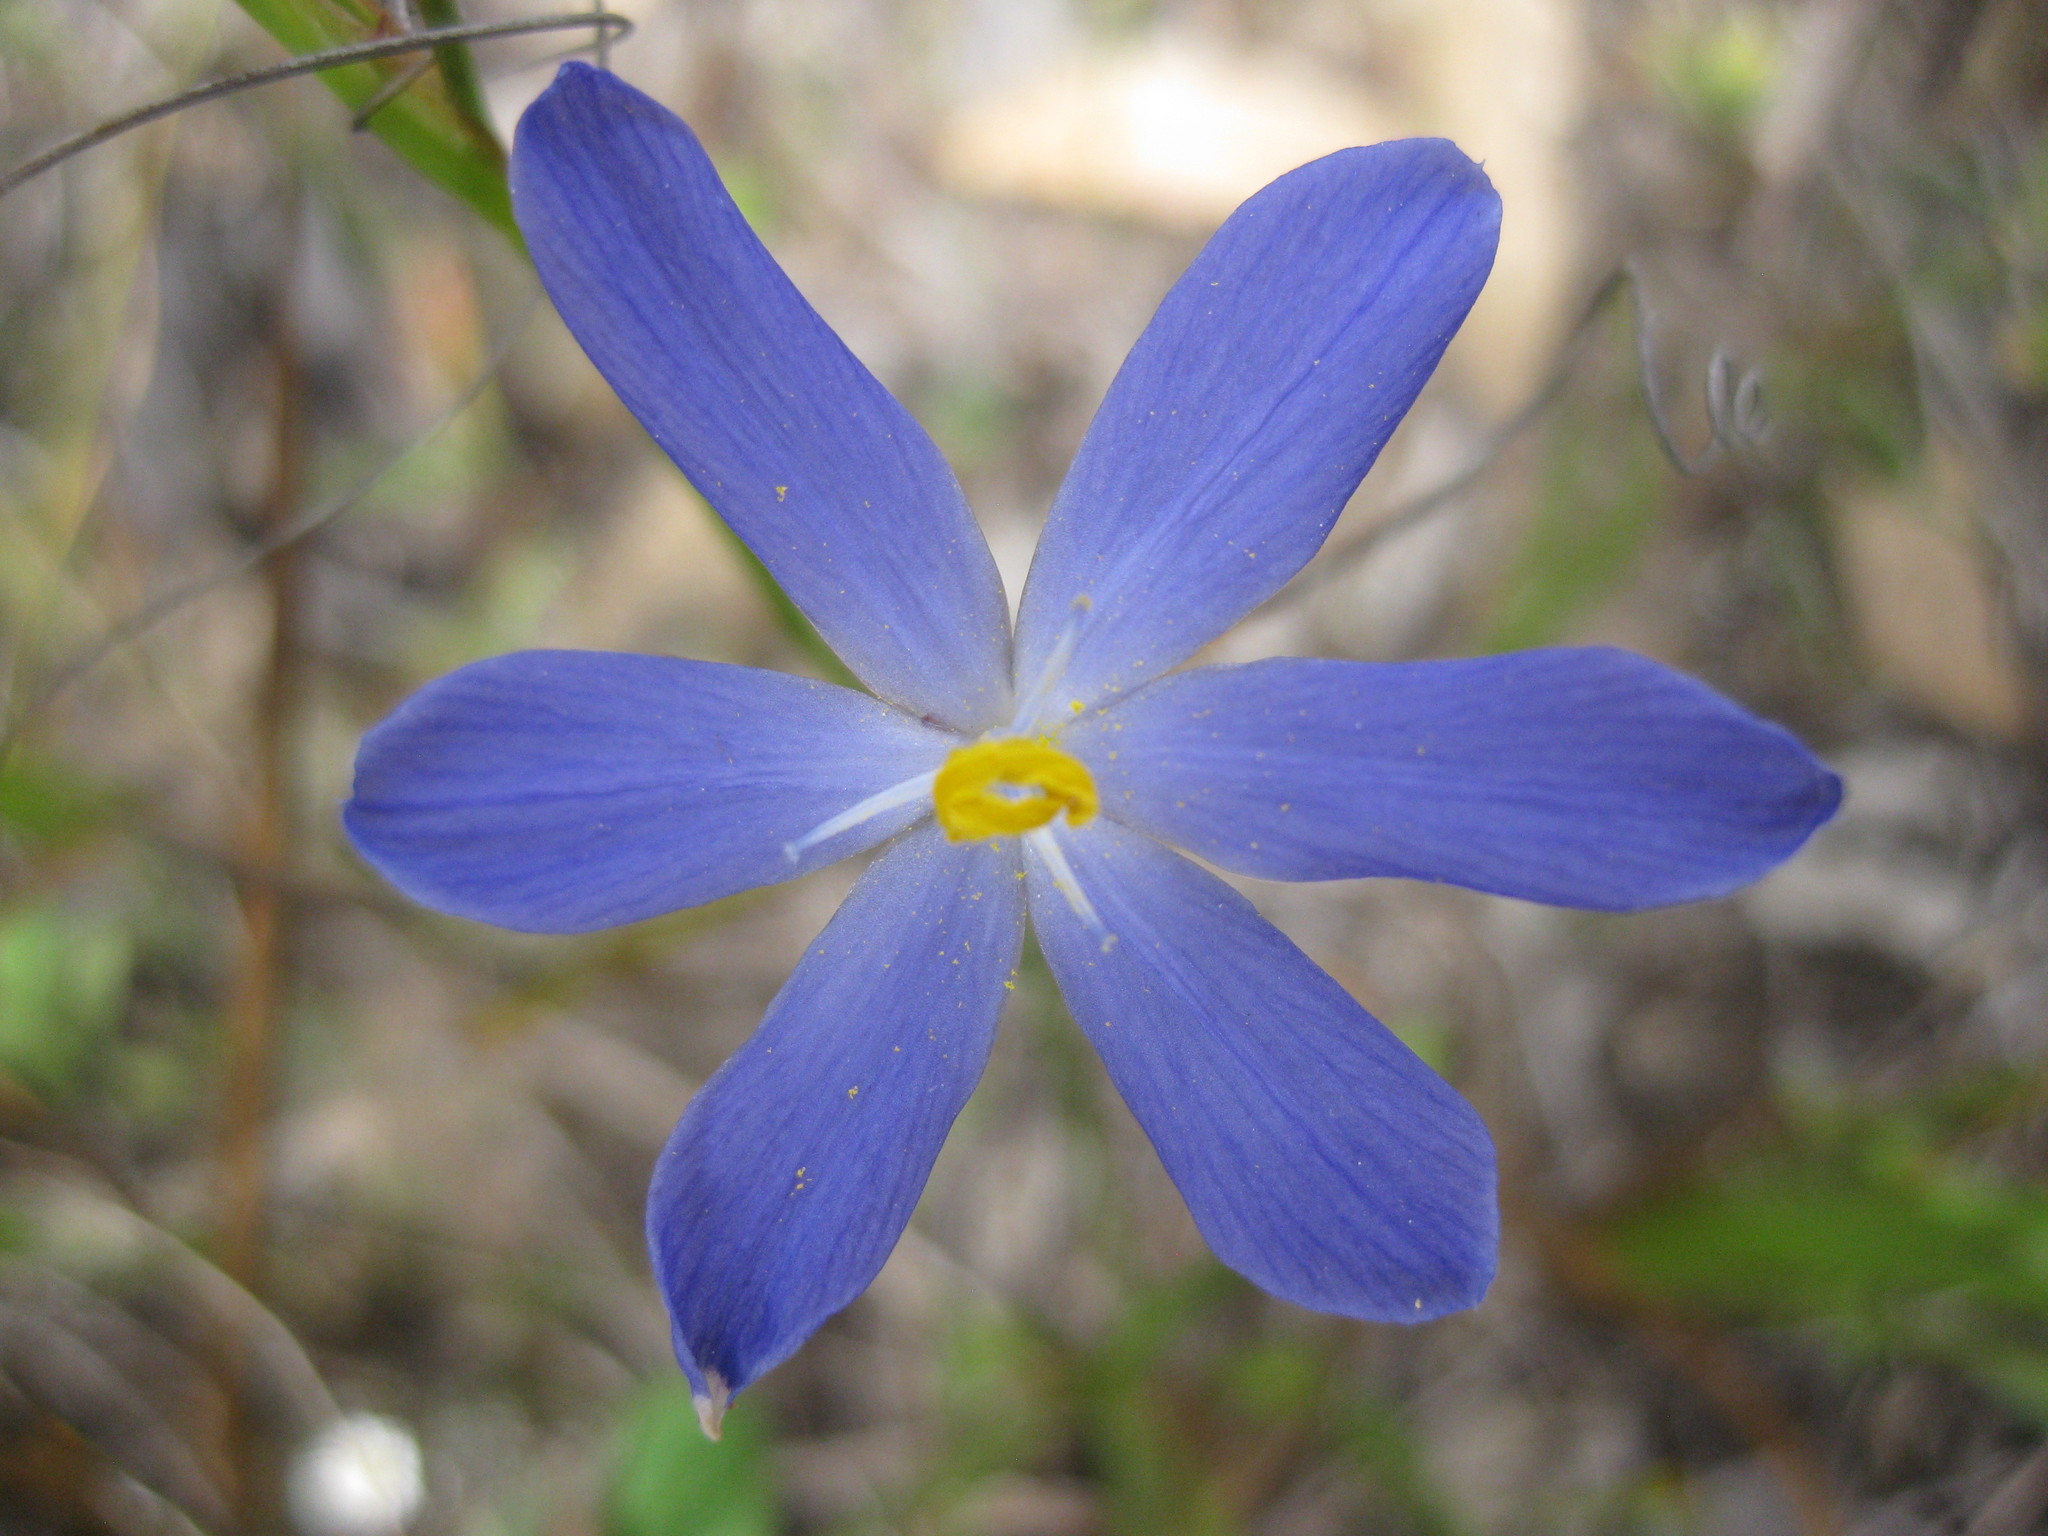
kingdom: Plantae
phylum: Tracheophyta
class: Liliopsida
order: Asparagales
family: Iridaceae
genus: Orthrosanthus
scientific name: Orthrosanthus laxus
